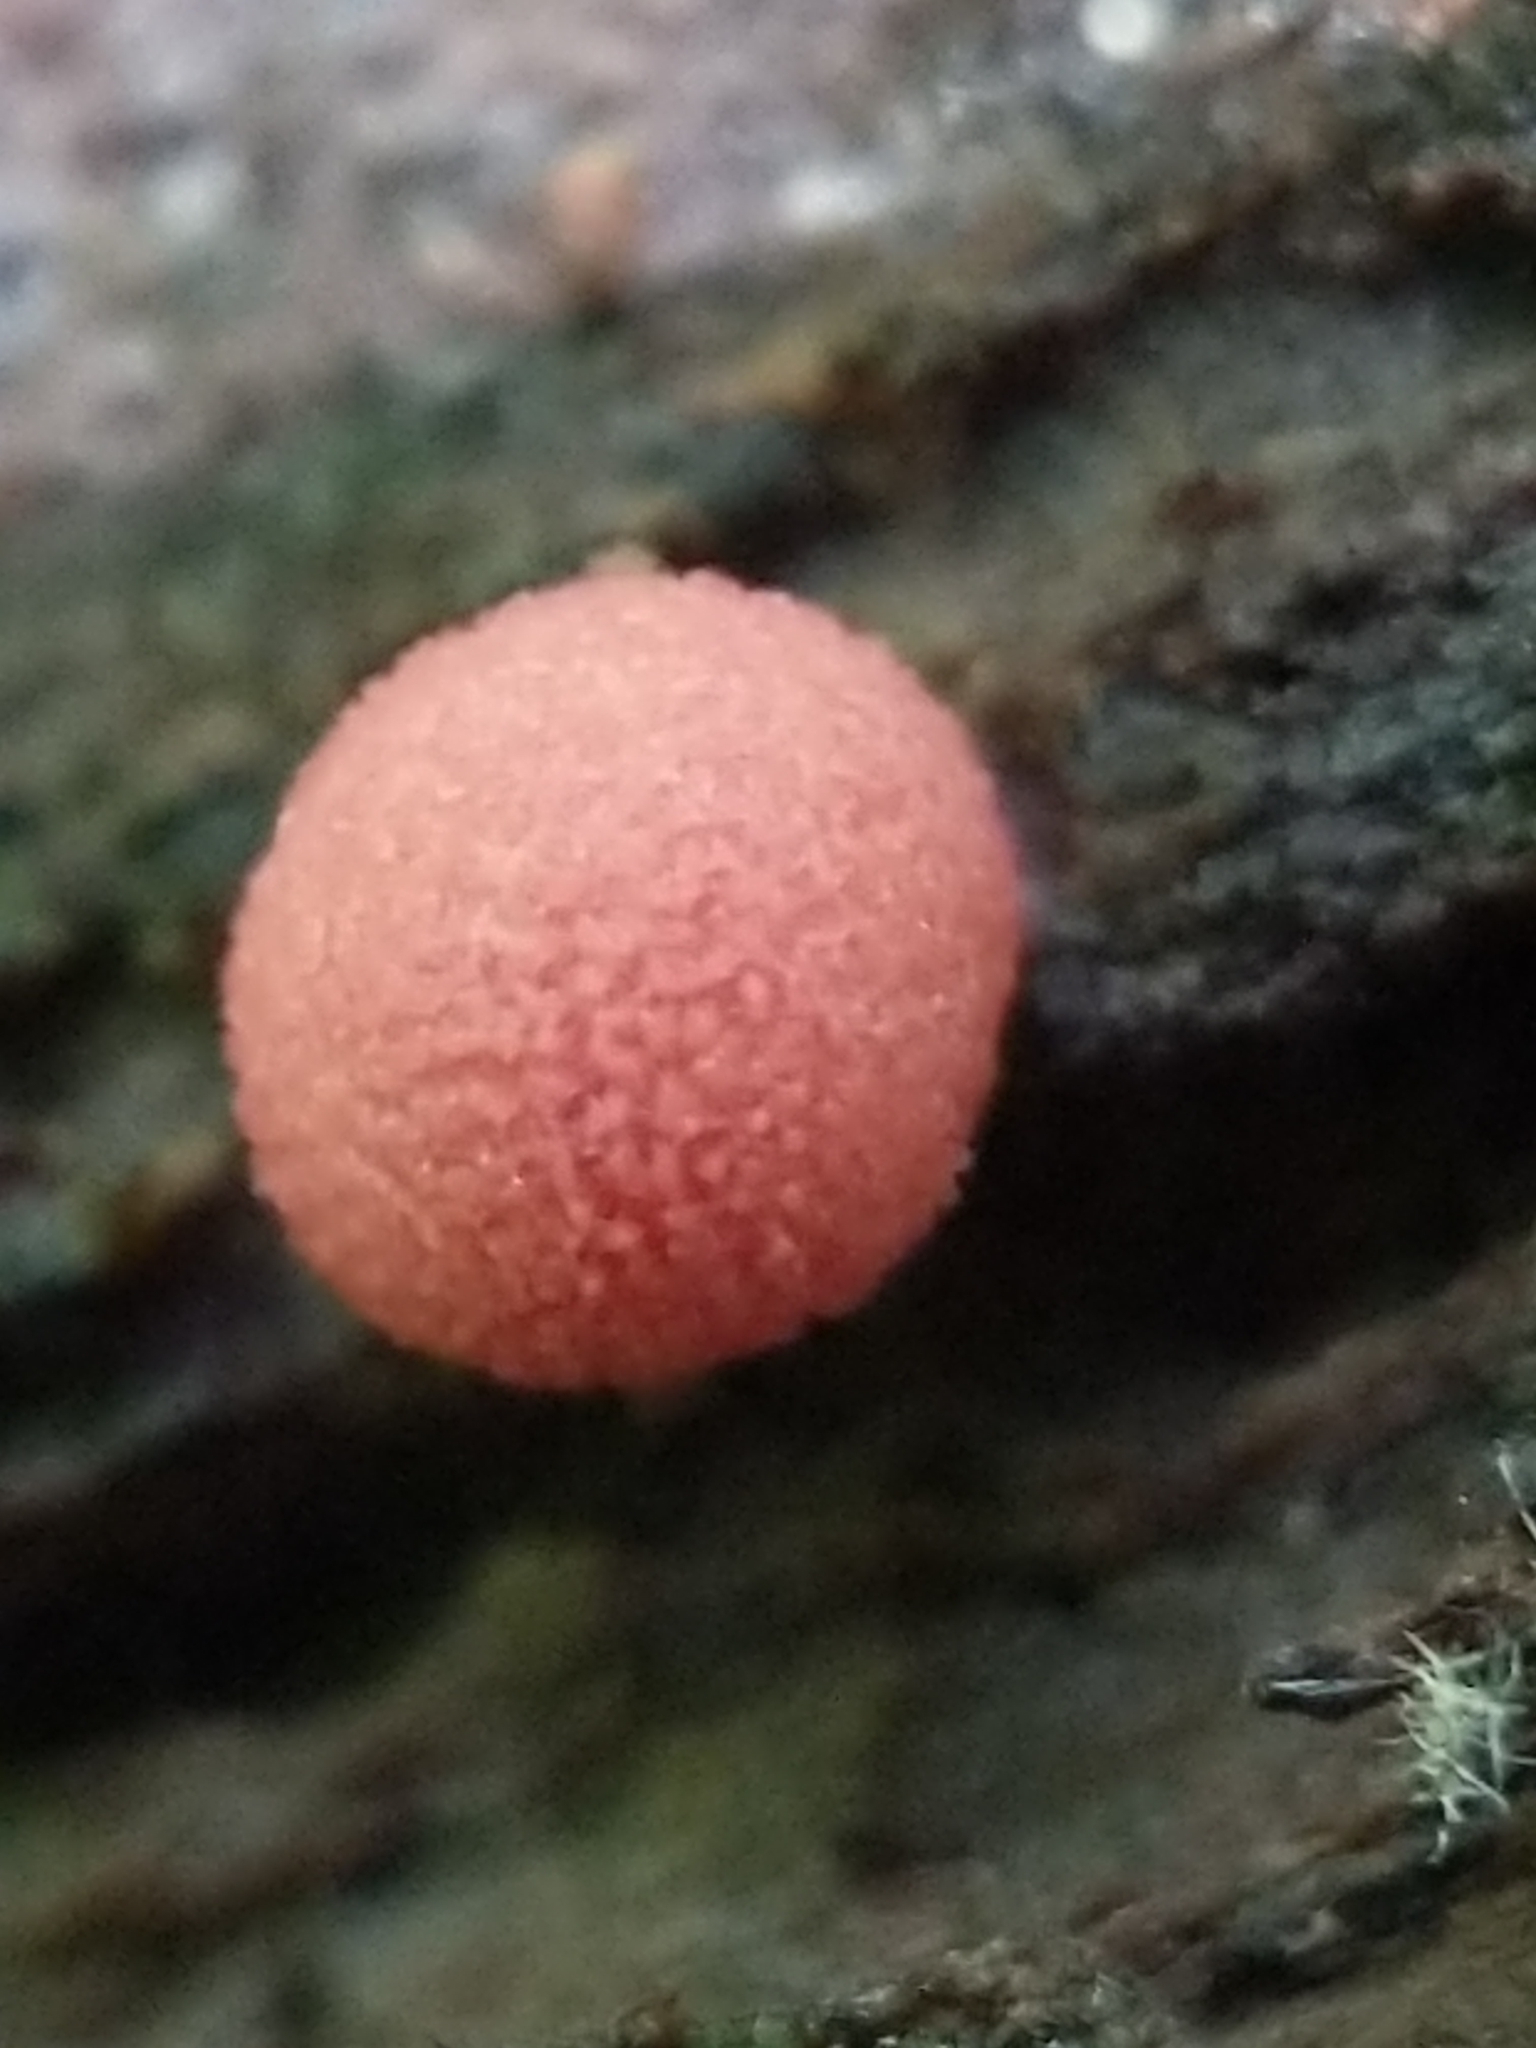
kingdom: Protozoa
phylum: Mycetozoa
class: Myxomycetes
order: Cribrariales
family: Tubiferaceae
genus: Lycogala
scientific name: Lycogala epidendrum
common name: Wolf's milk
